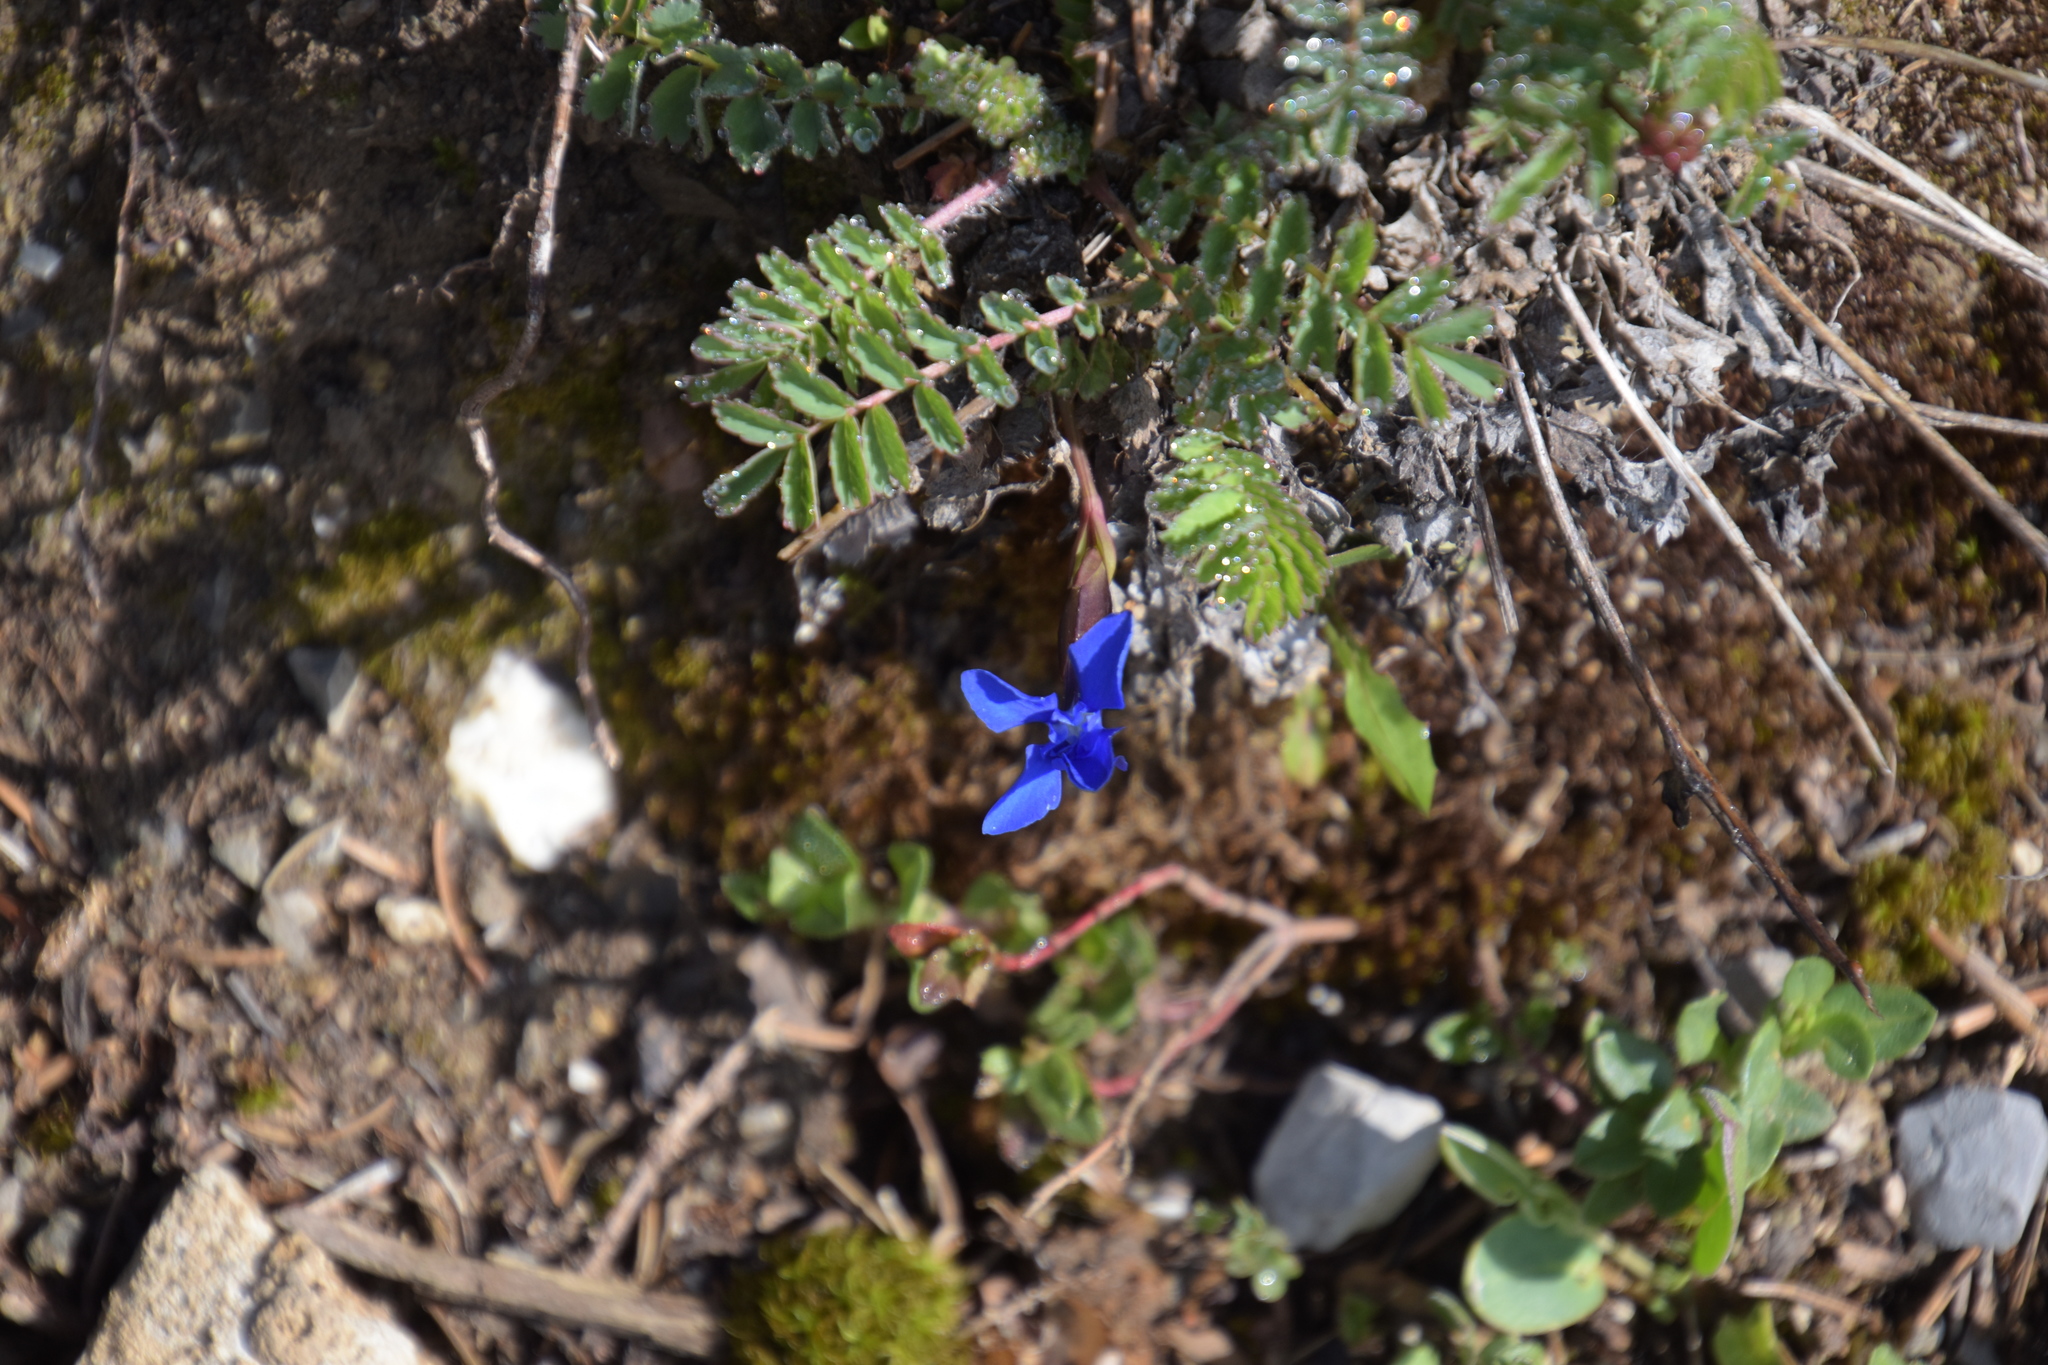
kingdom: Plantae
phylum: Tracheophyta
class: Magnoliopsida
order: Gentianales
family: Gentianaceae
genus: Gentiana
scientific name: Gentiana verna
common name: Spring gentian
